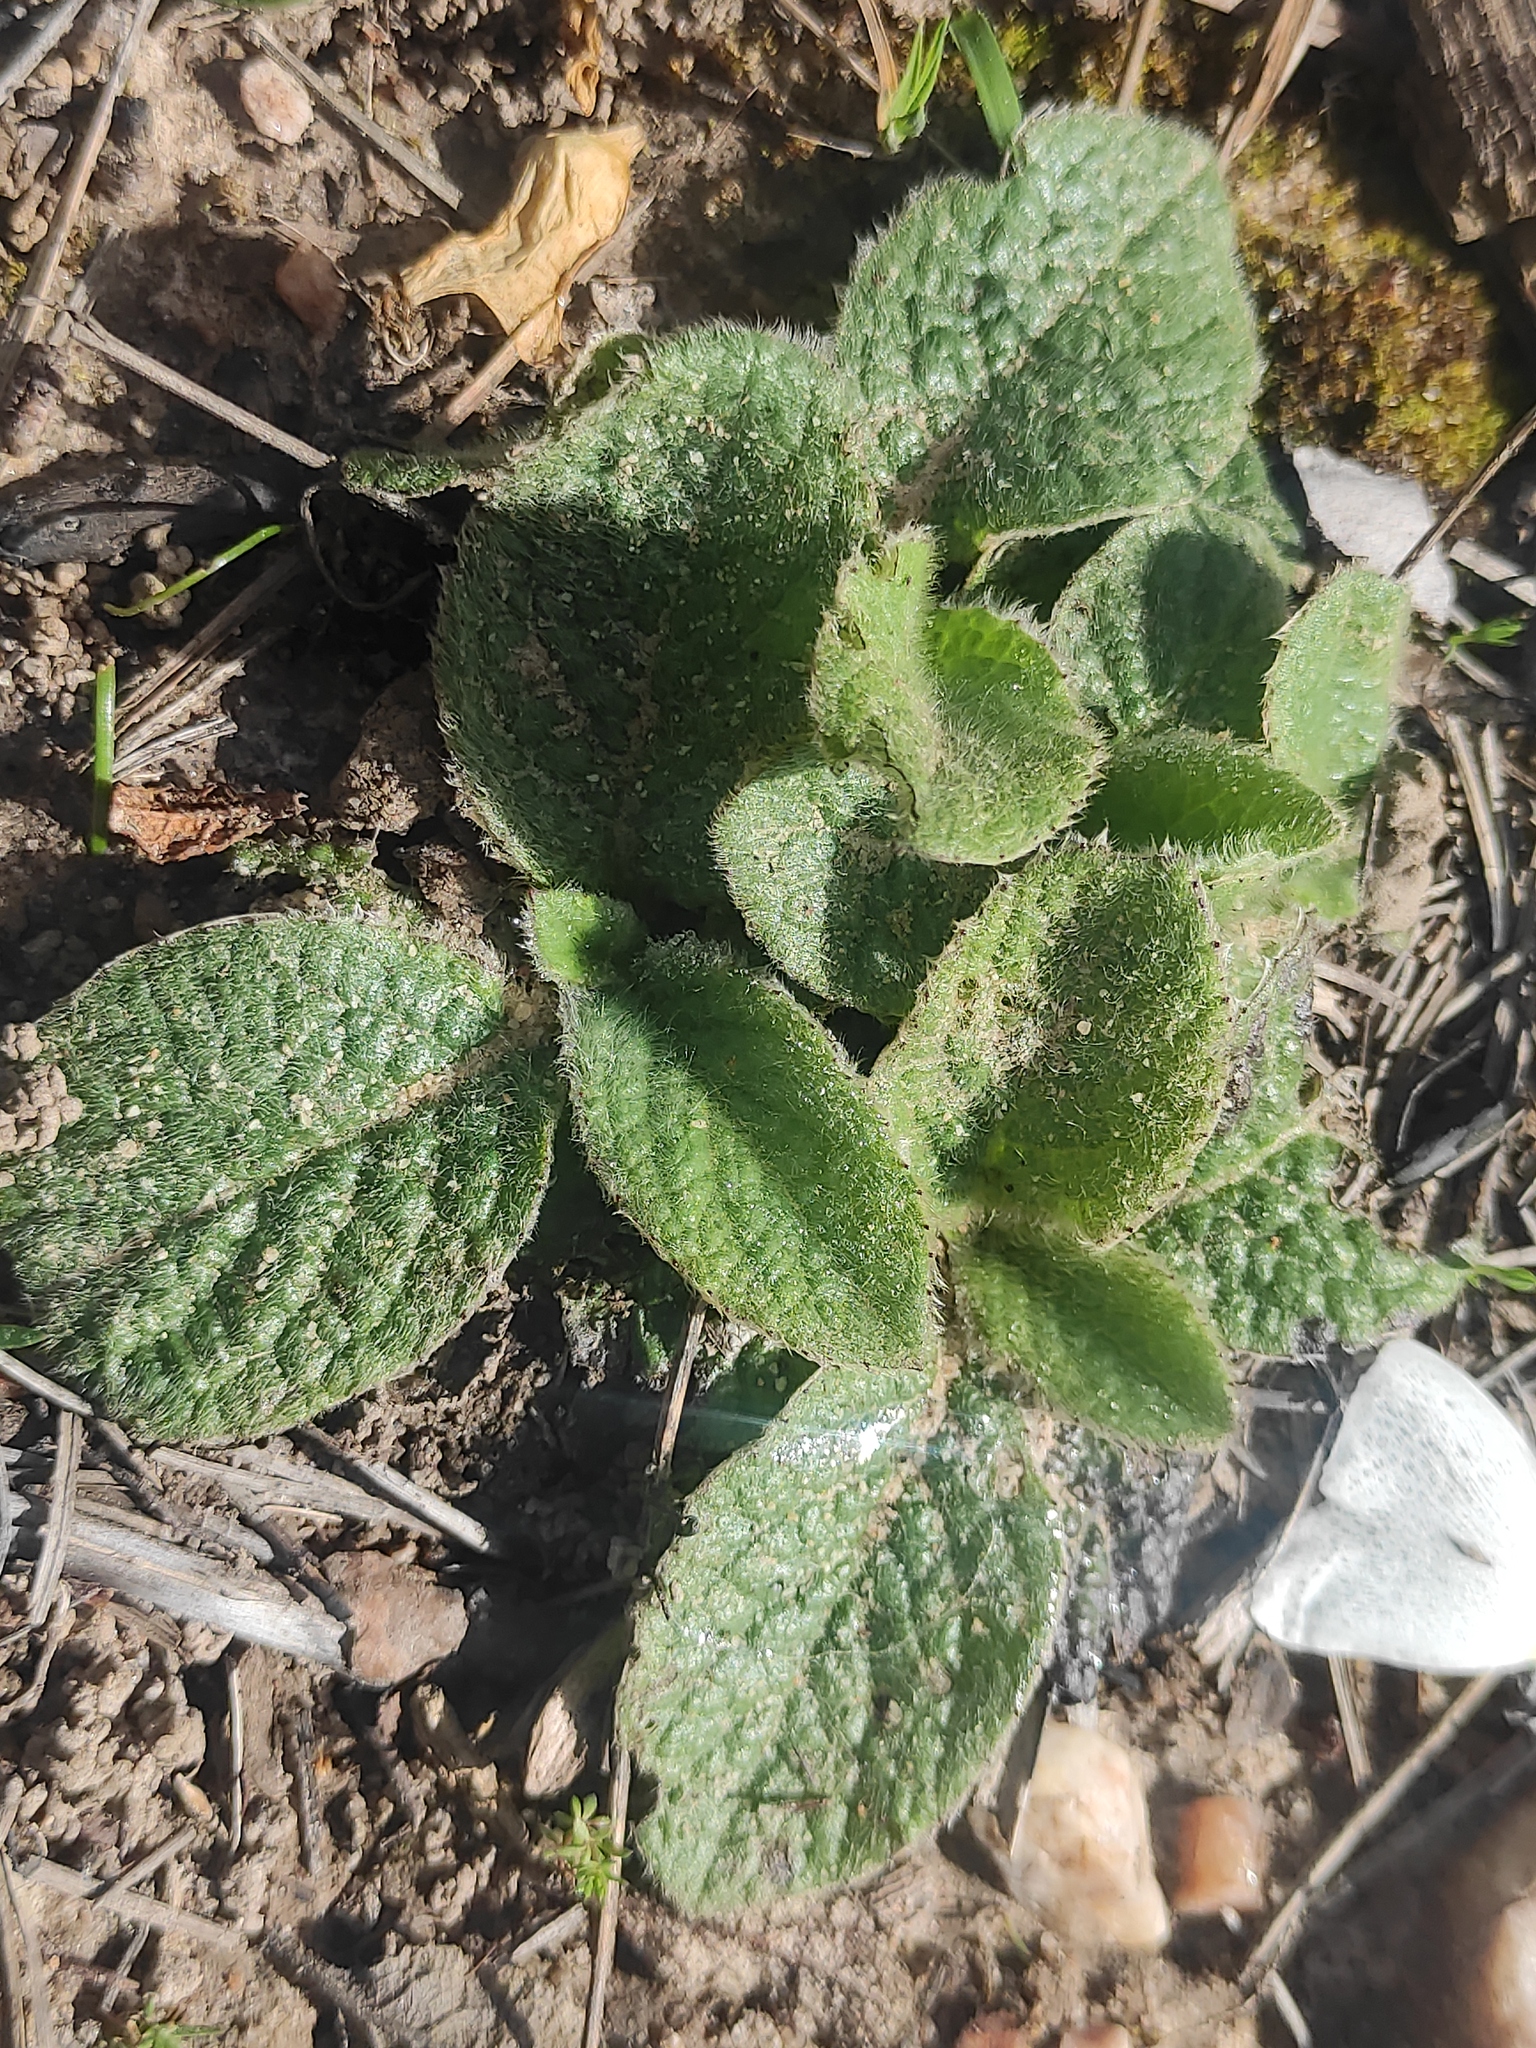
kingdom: Plantae
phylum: Tracheophyta
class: Magnoliopsida
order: Asterales
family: Asteraceae
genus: Pulicaria
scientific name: Pulicaria odora
